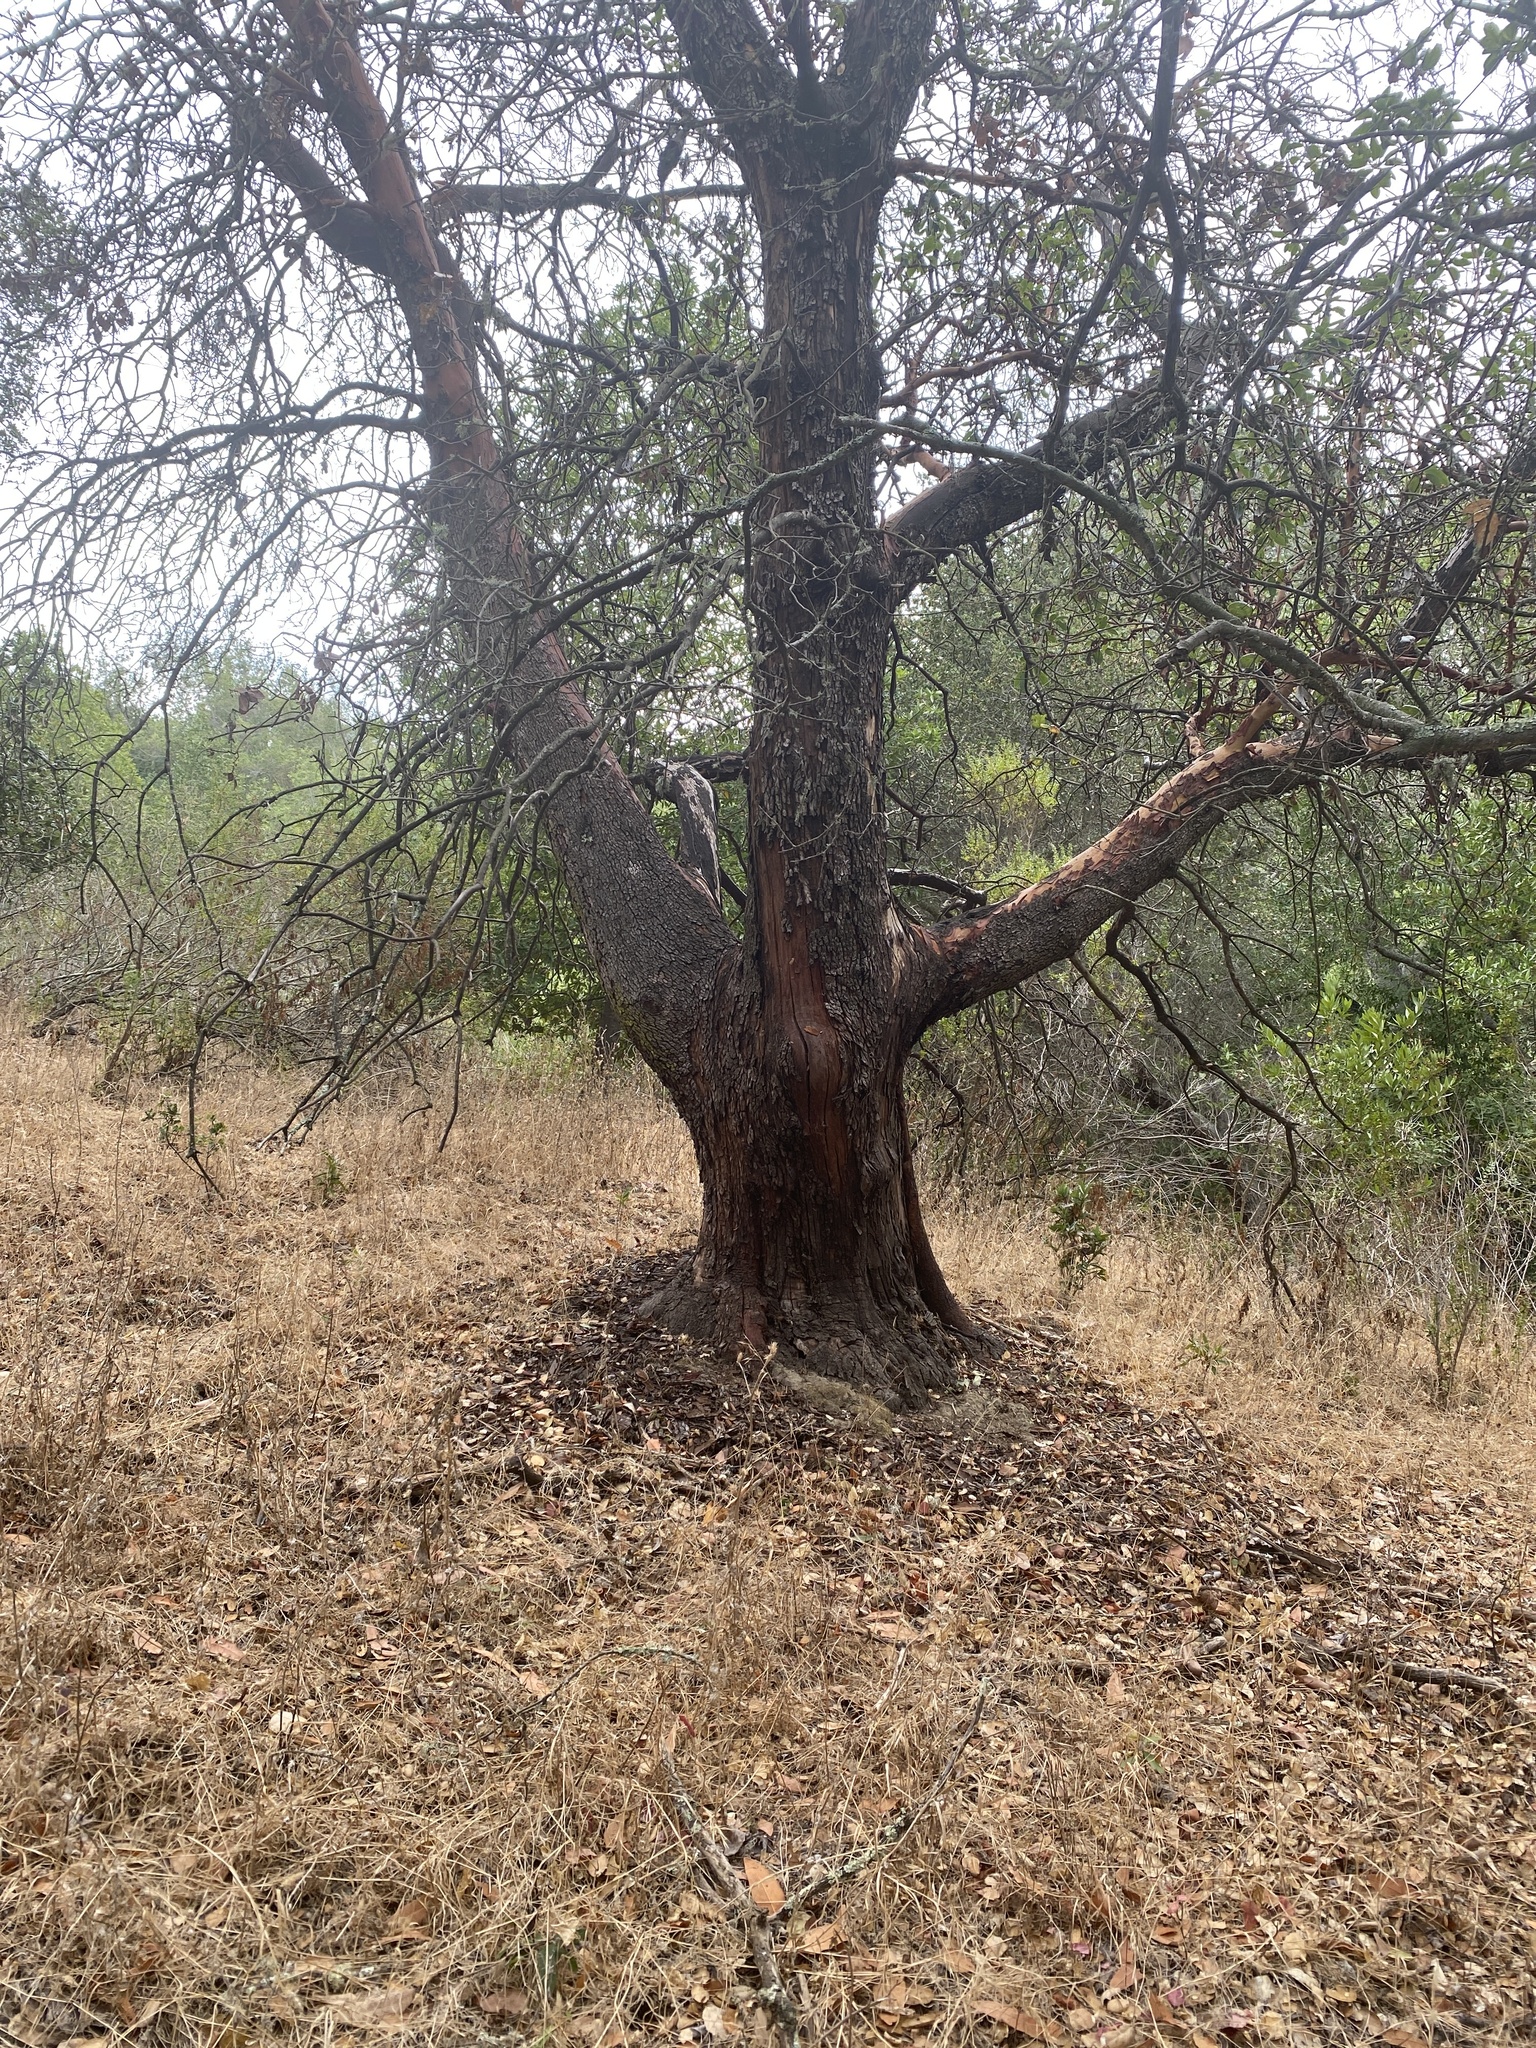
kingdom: Plantae
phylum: Tracheophyta
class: Magnoliopsida
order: Ericales
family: Ericaceae
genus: Arbutus
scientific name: Arbutus menziesii
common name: Pacific madrone
